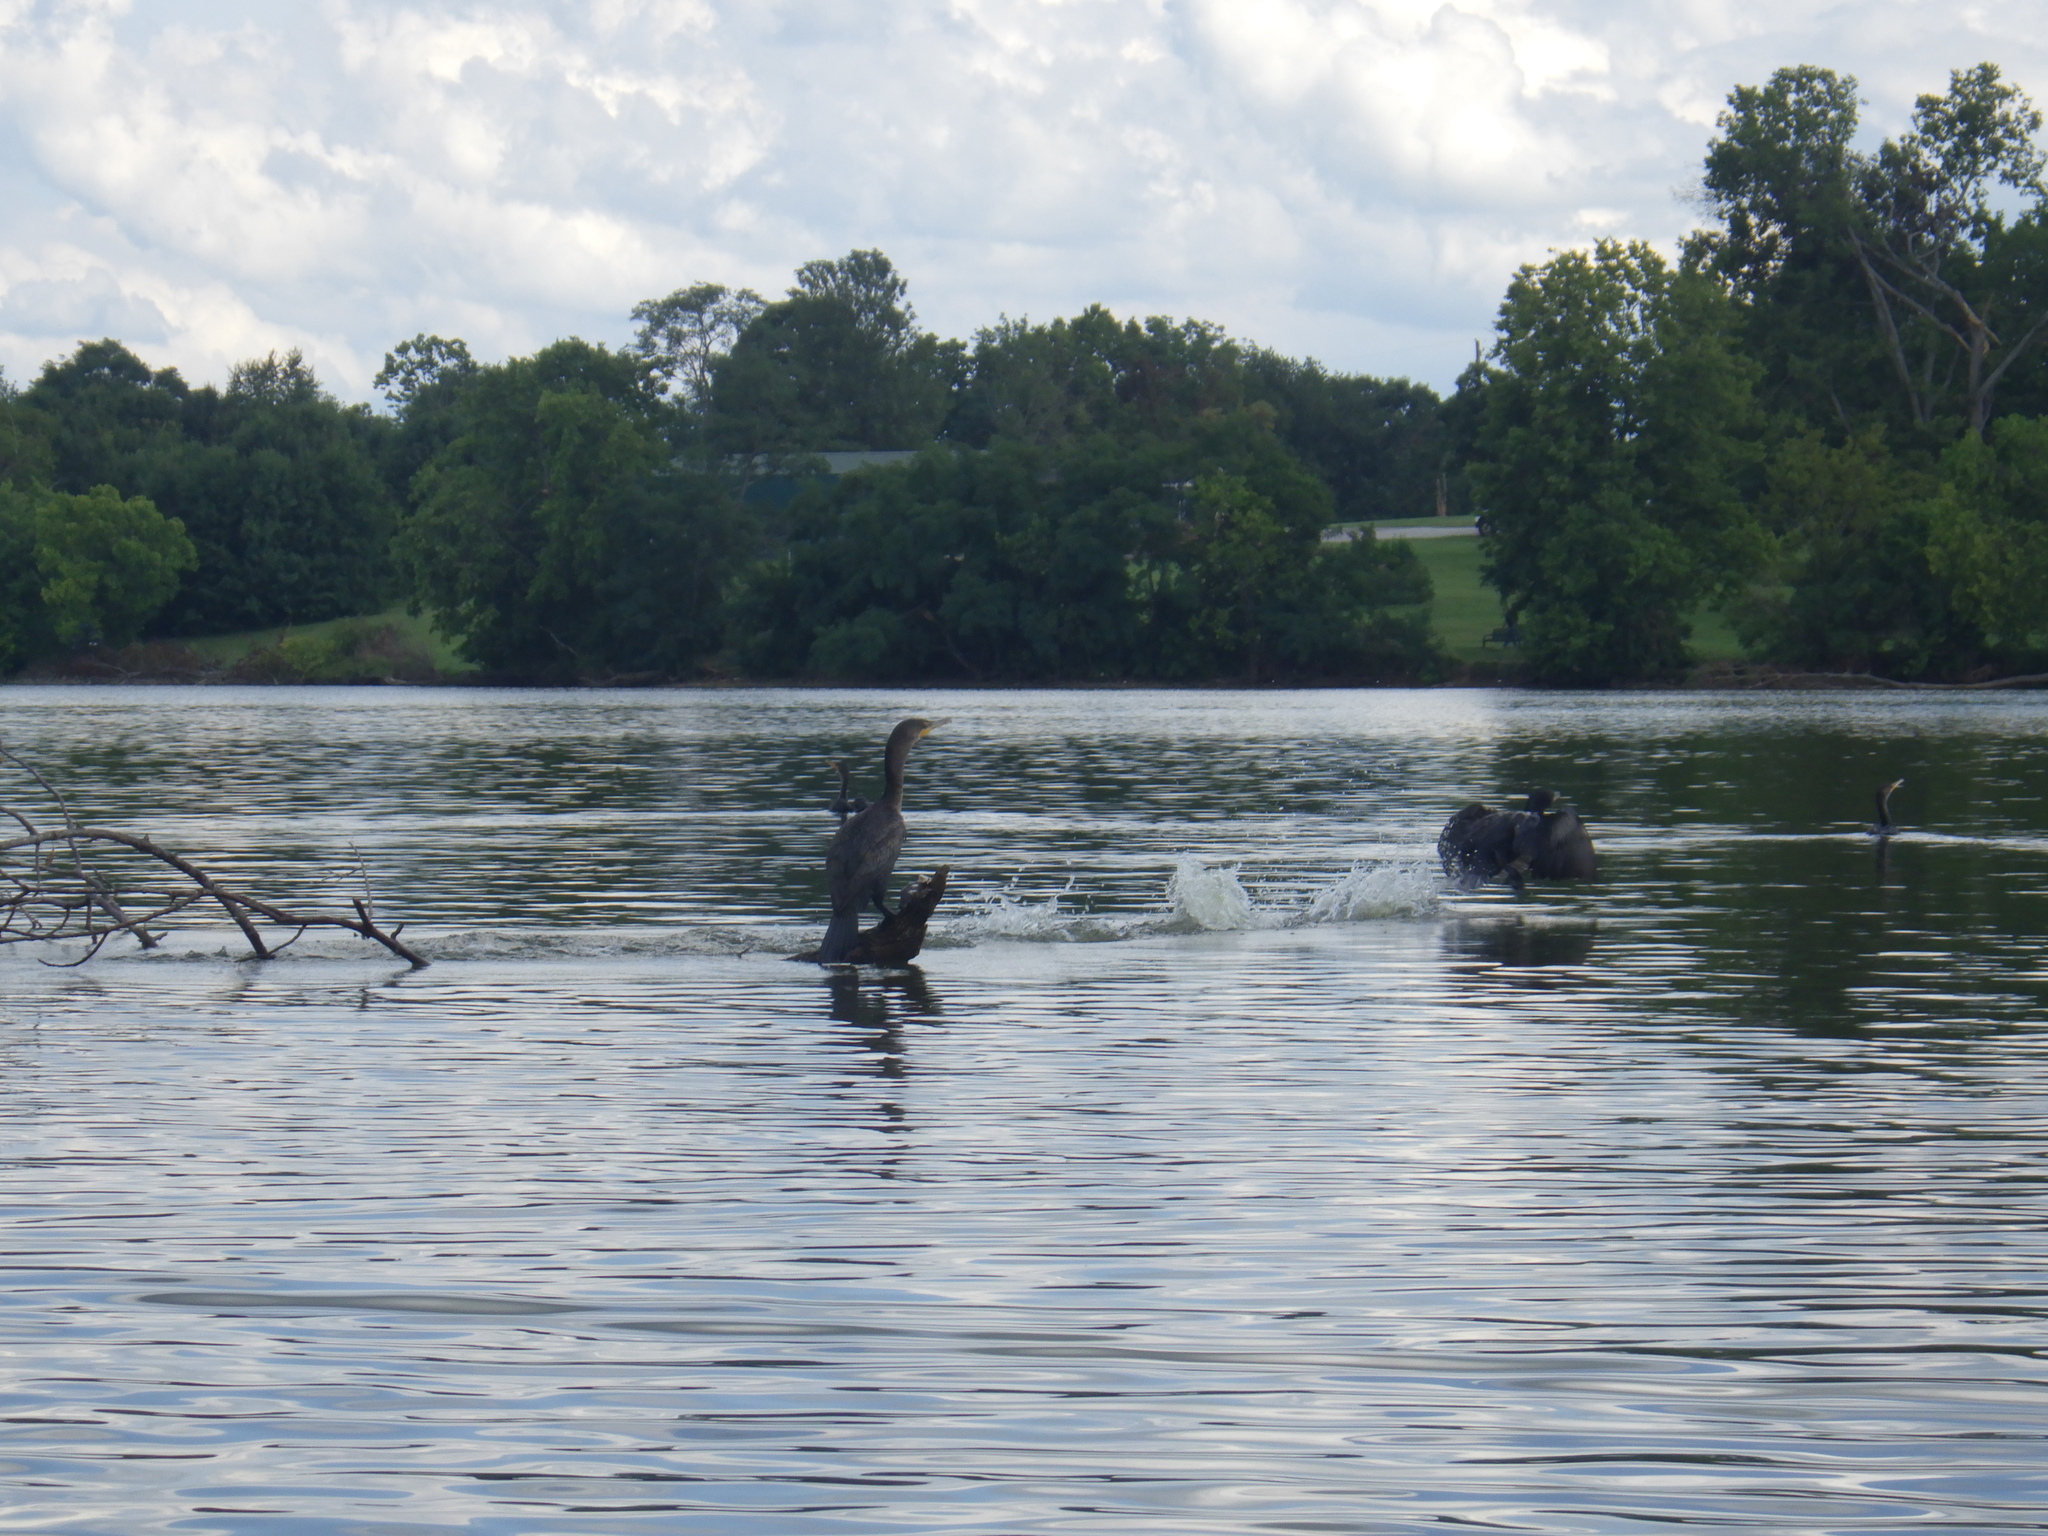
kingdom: Animalia
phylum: Chordata
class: Aves
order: Suliformes
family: Phalacrocoracidae
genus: Phalacrocorax
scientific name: Phalacrocorax auritus
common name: Double-crested cormorant
